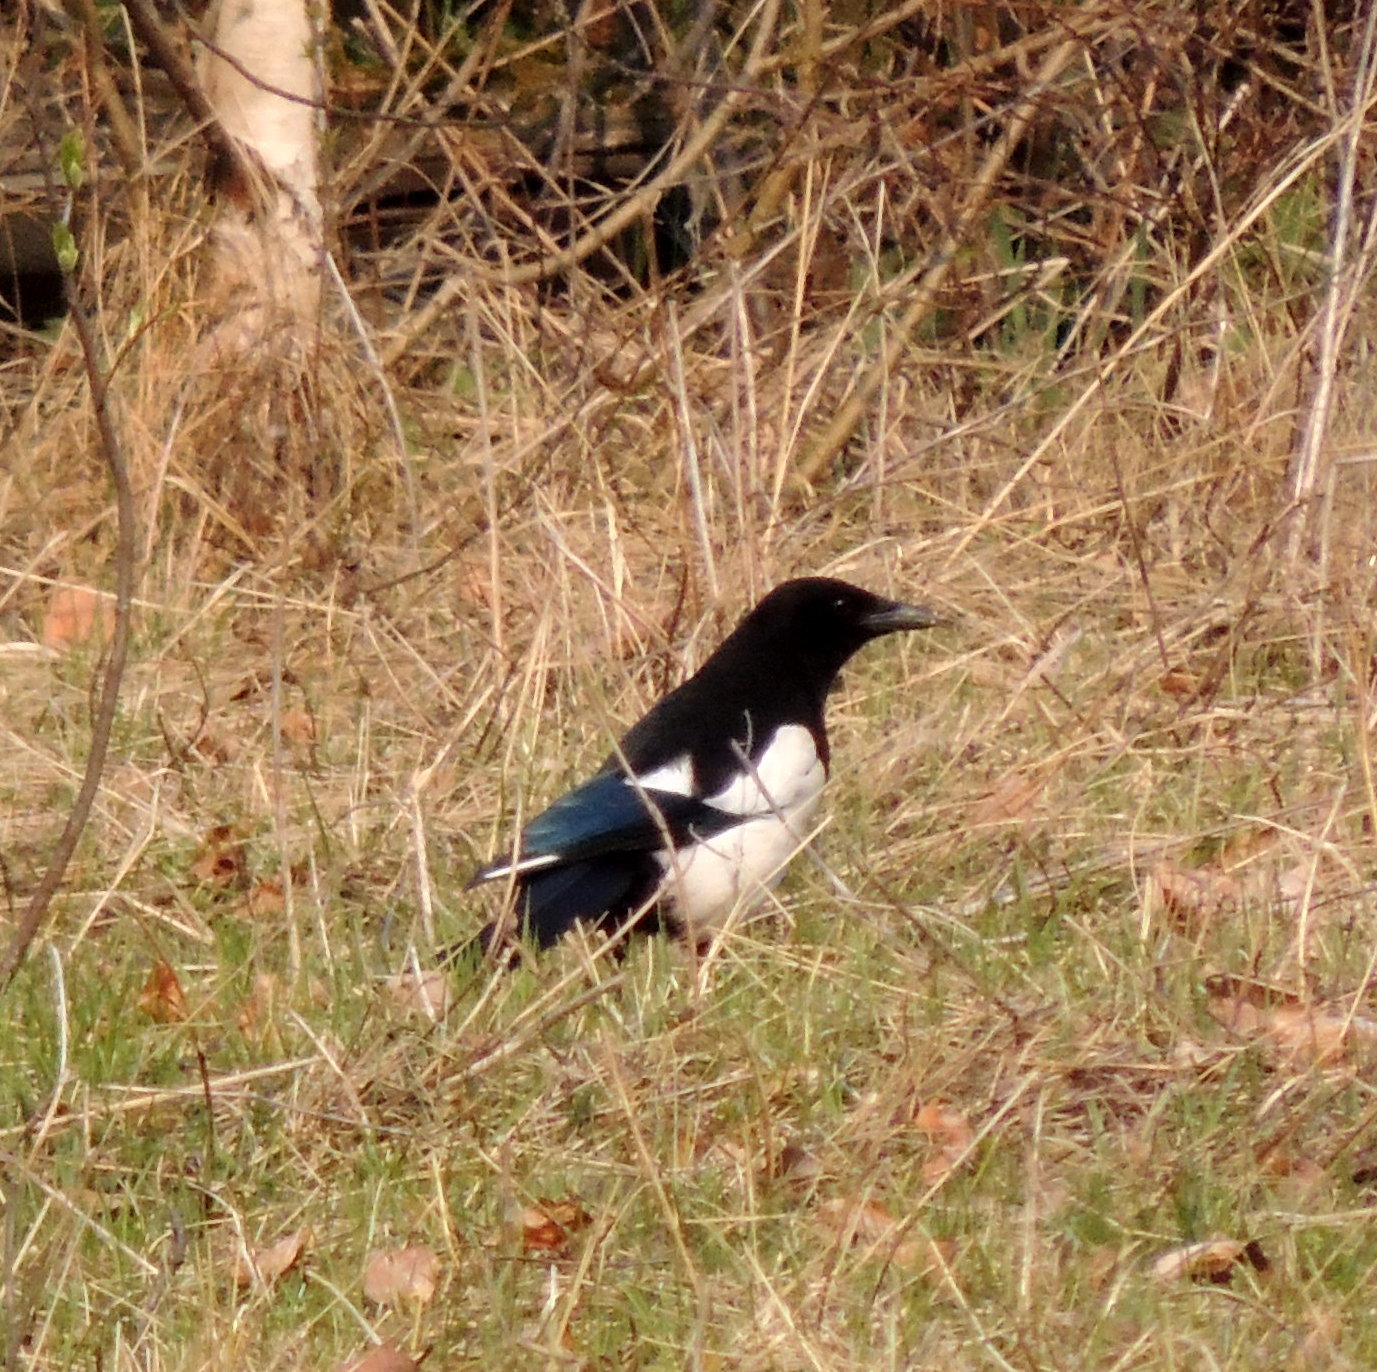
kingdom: Animalia
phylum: Chordata
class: Aves
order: Passeriformes
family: Corvidae
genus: Pica
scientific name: Pica pica
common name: Eurasian magpie
